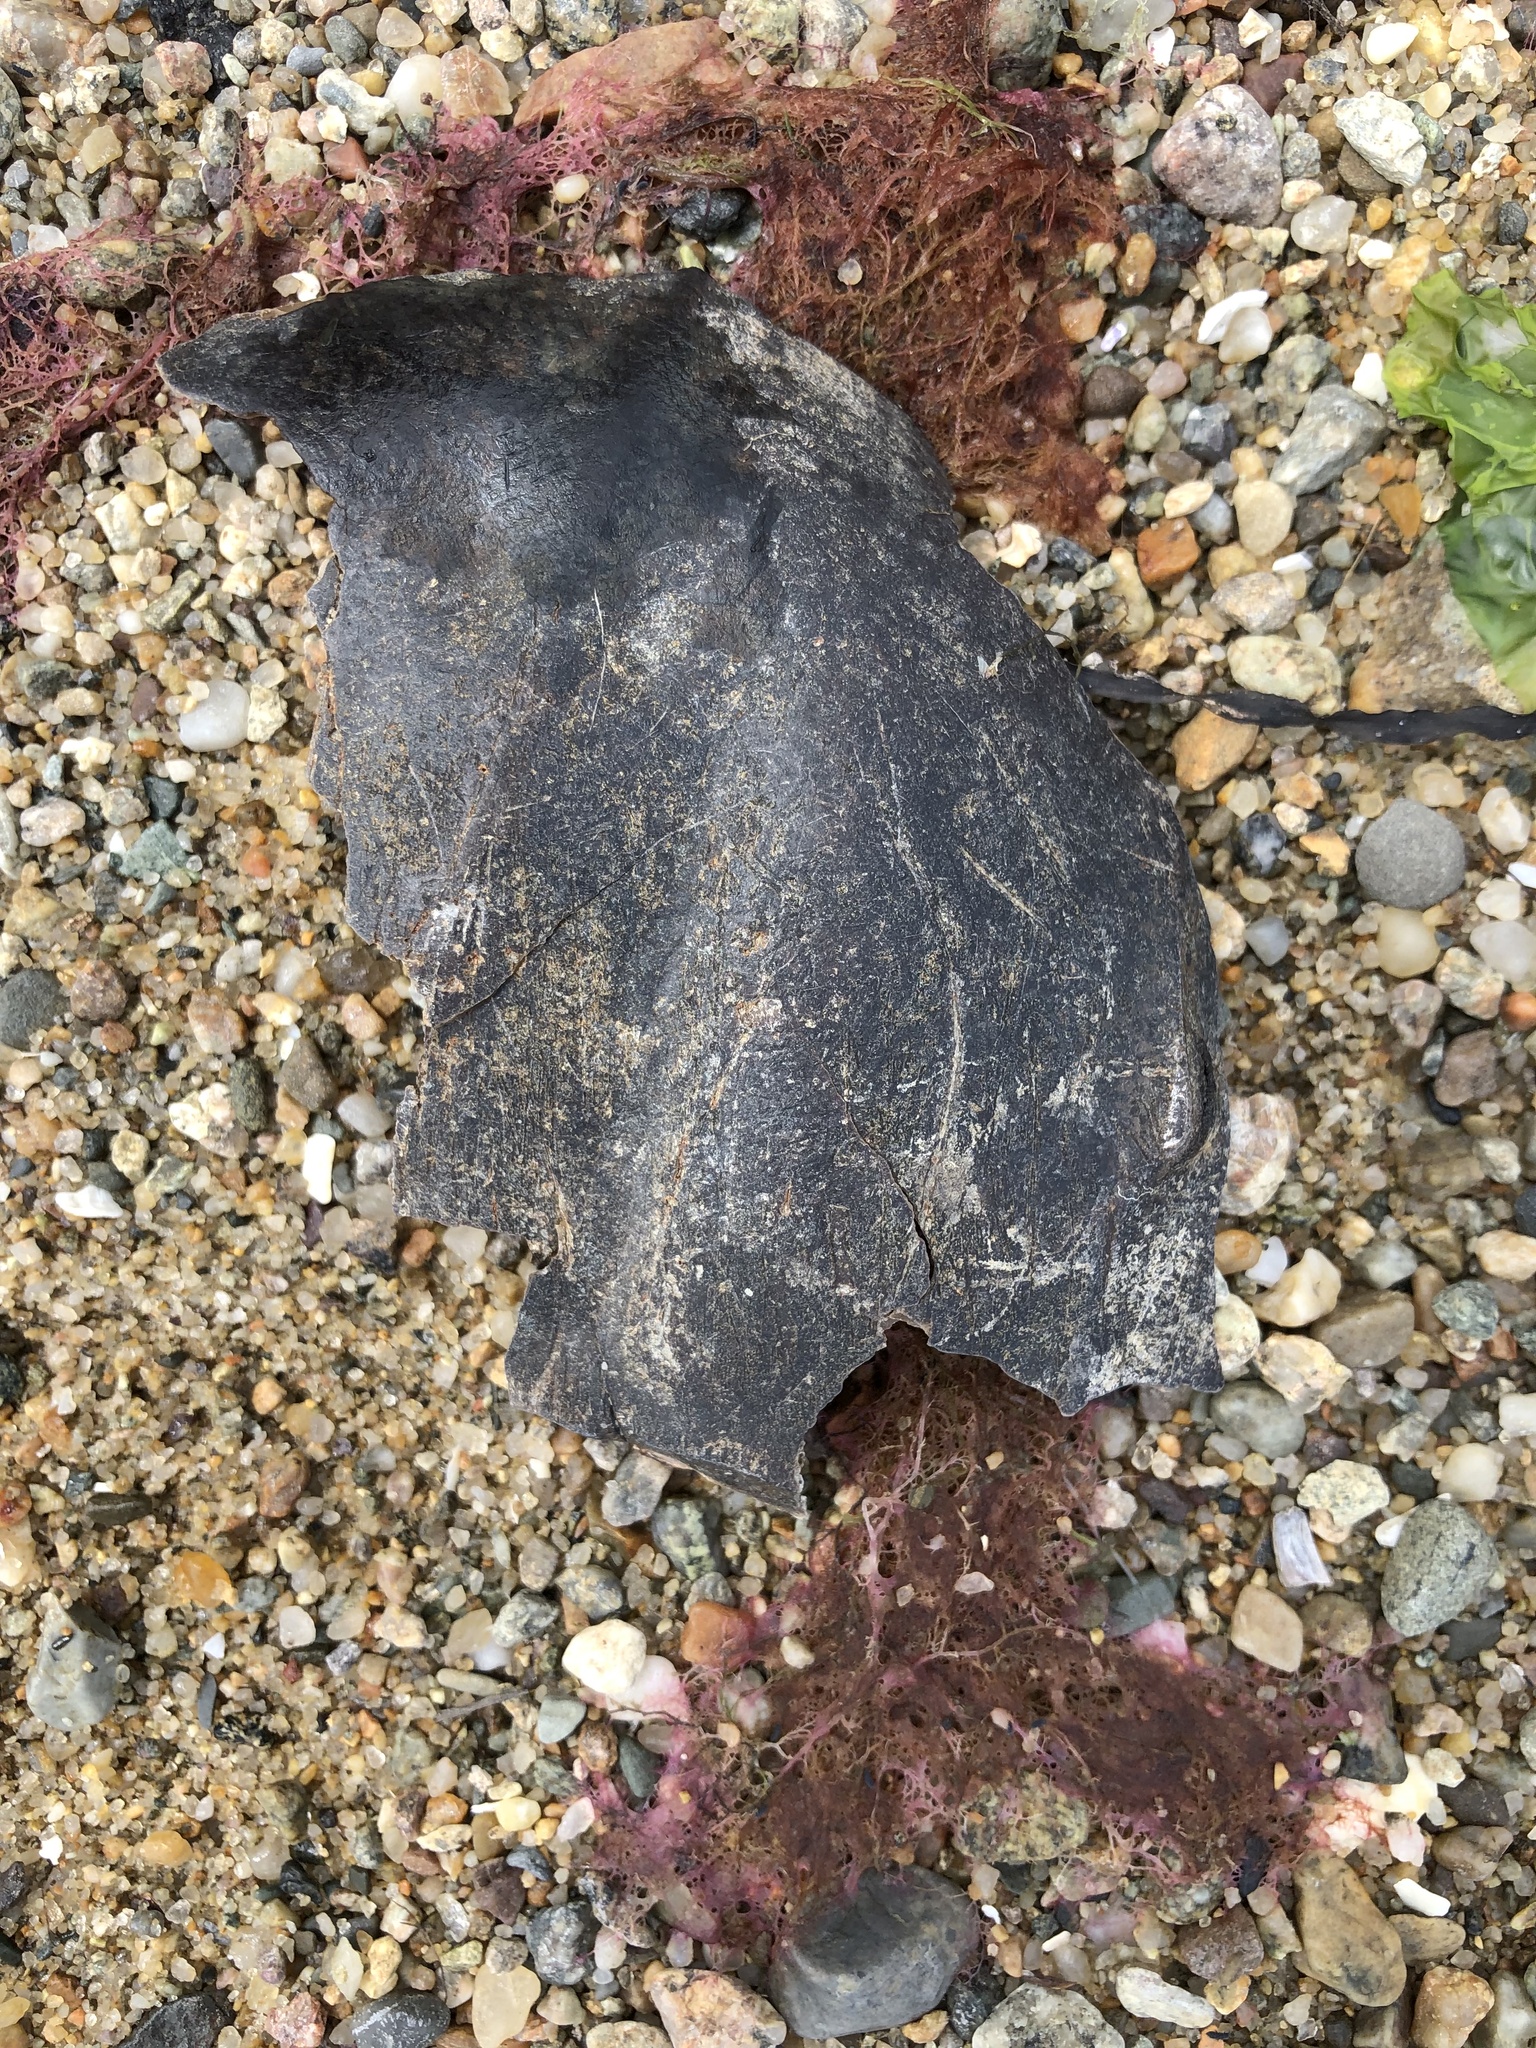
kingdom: Animalia
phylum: Arthropoda
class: Merostomata
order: Xiphosurida
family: Limulidae
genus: Limulus
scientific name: Limulus polyphemus
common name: Horseshoe crab
